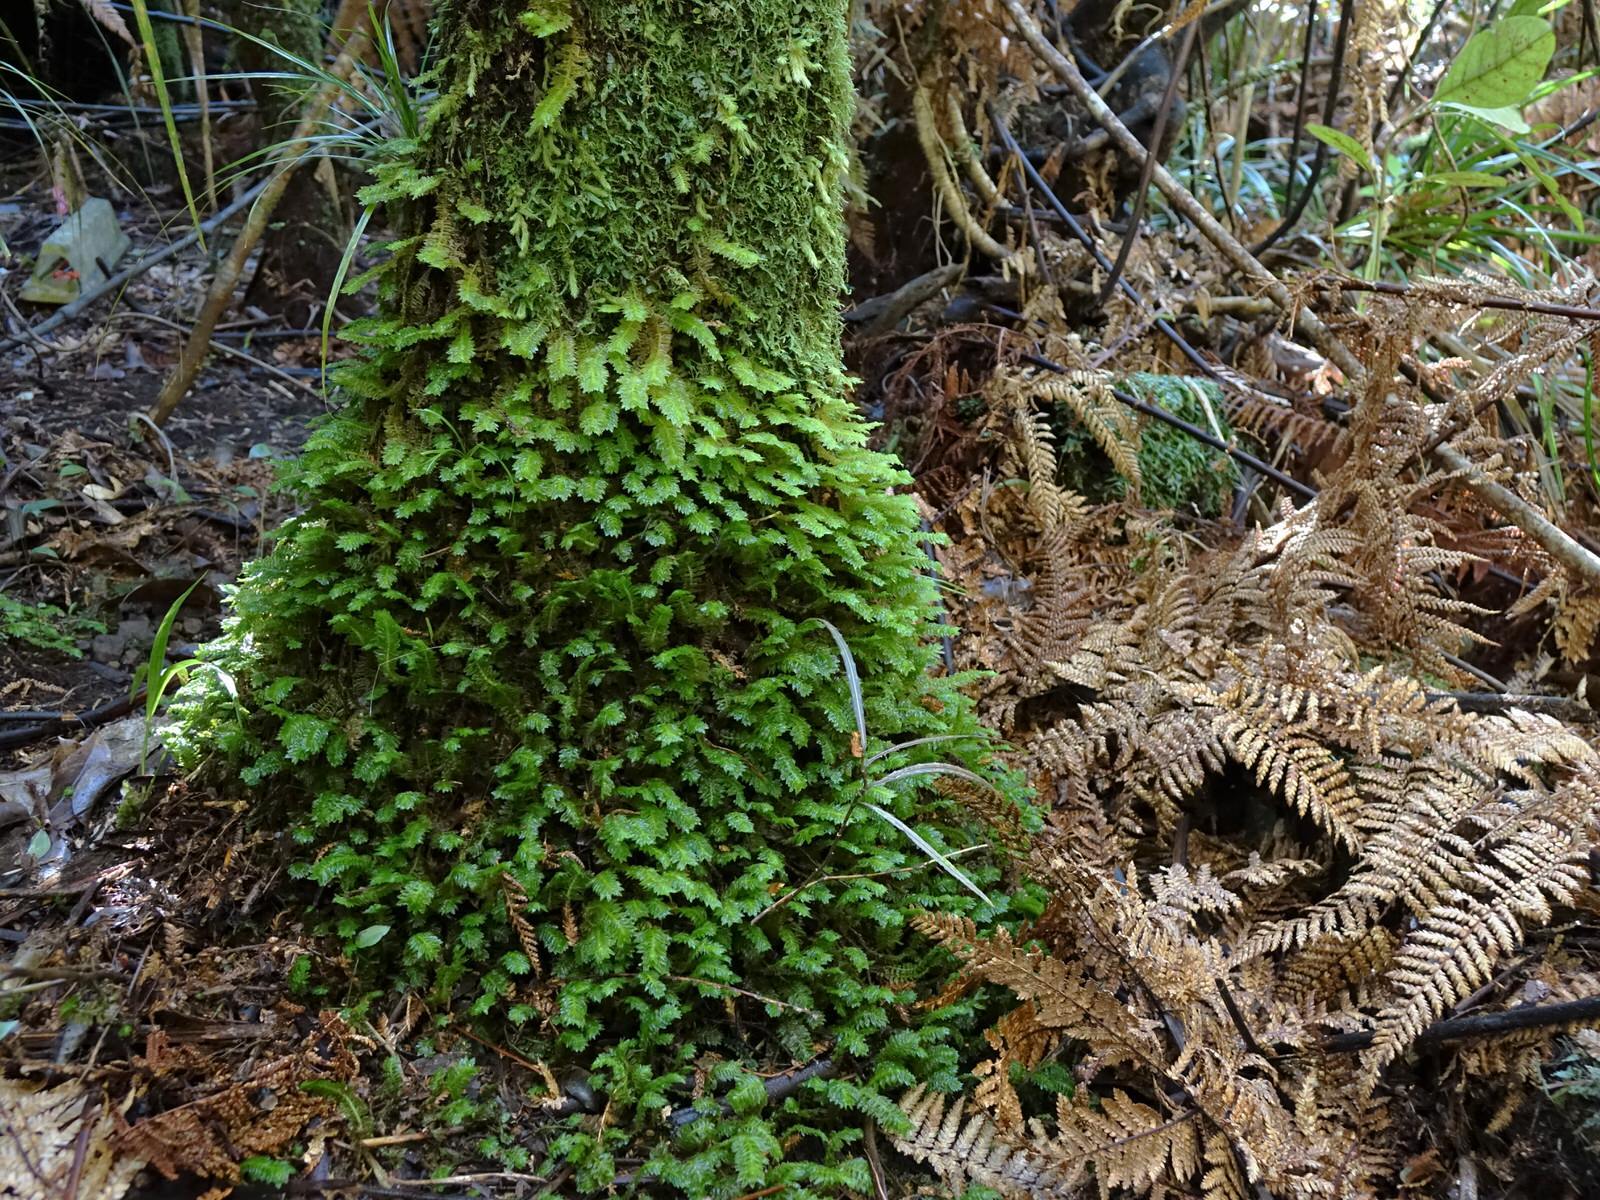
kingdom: Plantae
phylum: Marchantiophyta
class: Jungermanniopsida
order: Jungermanniales
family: Schistochilaceae
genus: Schistochila
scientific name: Schistochila appendiculata
